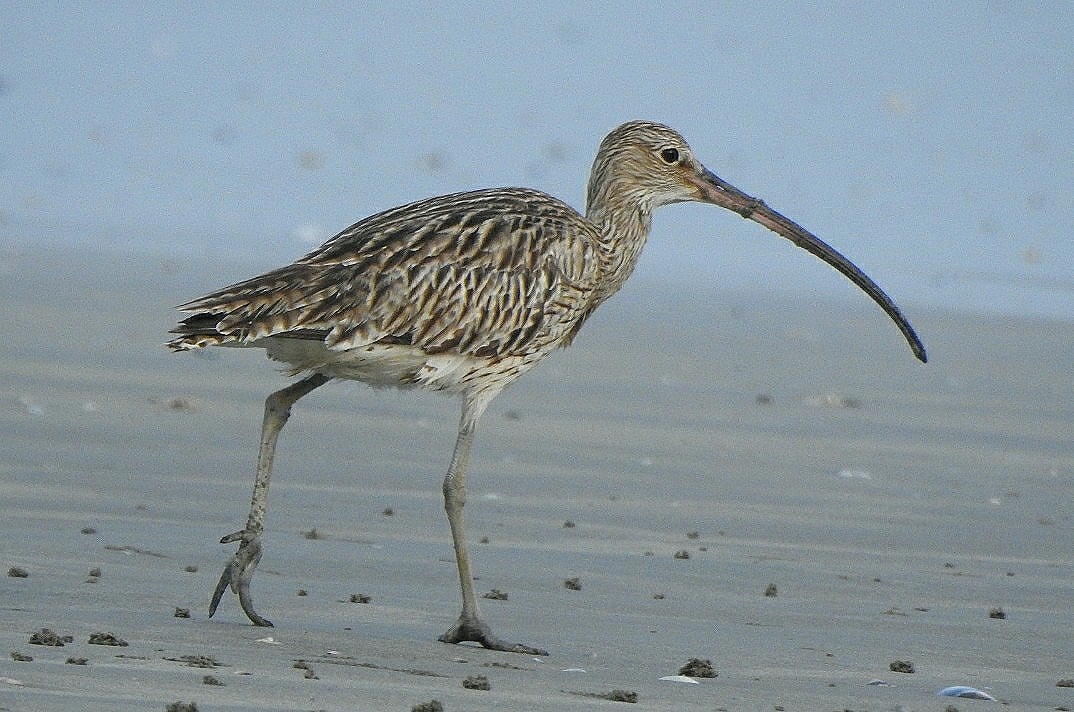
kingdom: Animalia
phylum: Chordata
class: Aves
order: Charadriiformes
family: Scolopacidae
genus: Numenius
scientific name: Numenius arquata
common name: Eurasian curlew
